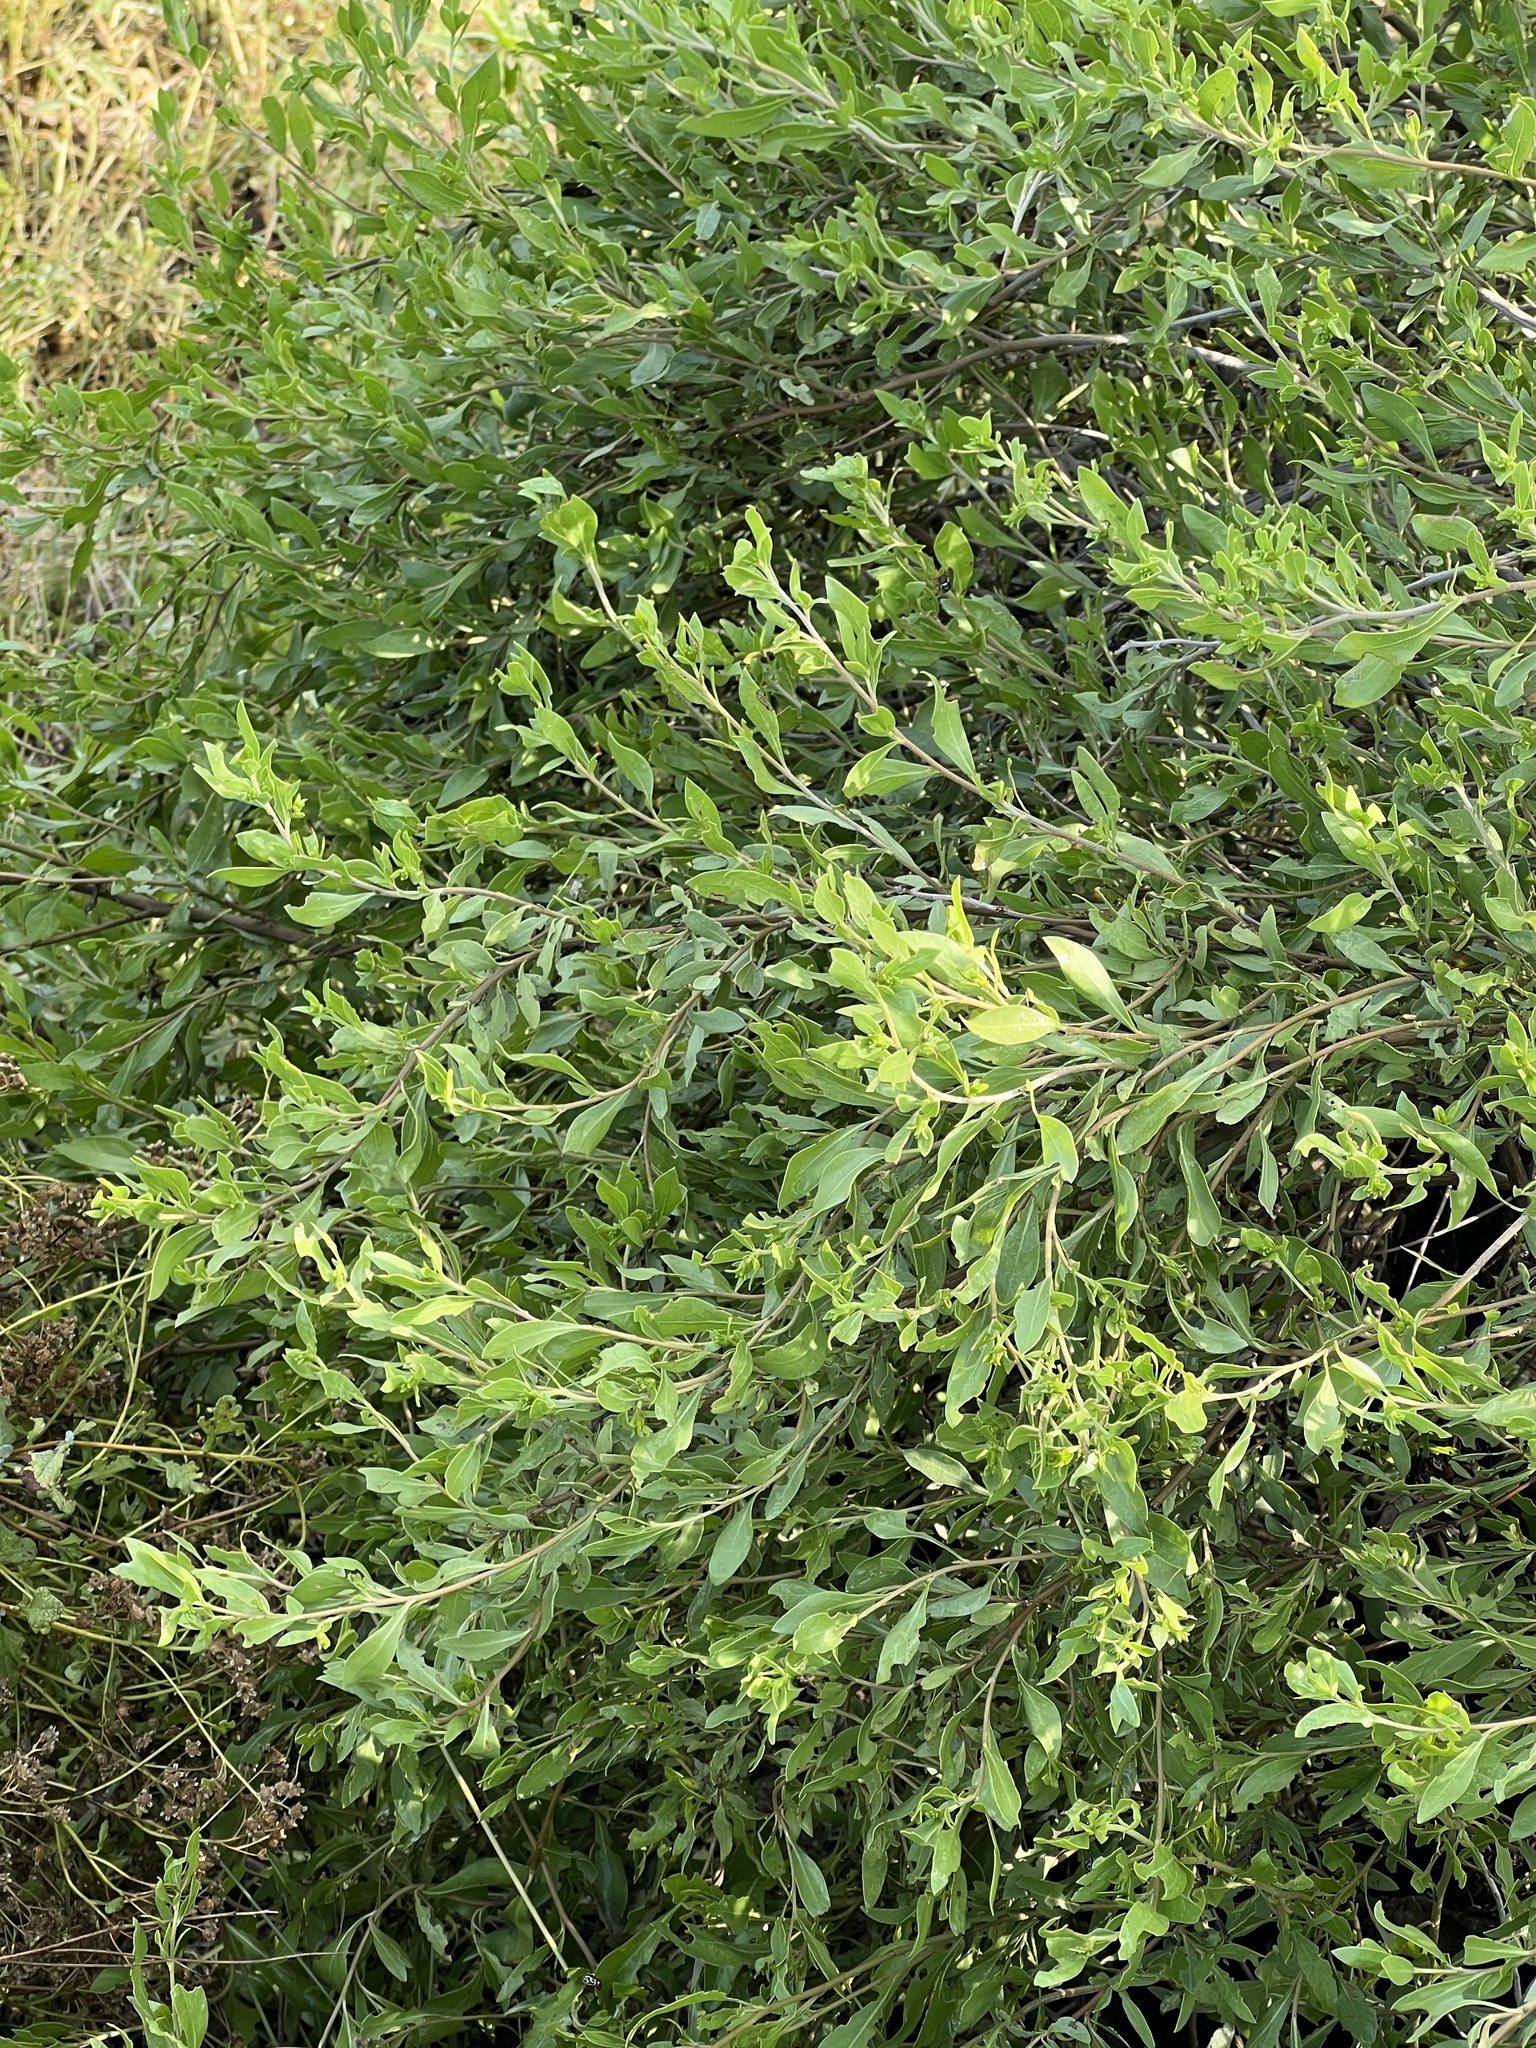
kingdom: Plantae
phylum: Tracheophyta
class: Magnoliopsida
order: Asterales
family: Asteraceae
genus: Flourensia
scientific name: Flourensia cernua
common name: Varnishbush
